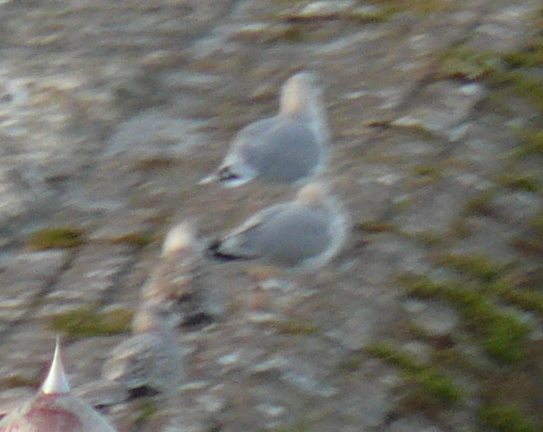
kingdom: Animalia
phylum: Chordata
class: Aves
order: Charadriiformes
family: Laridae
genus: Larus
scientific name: Larus argentatus
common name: Herring gull
